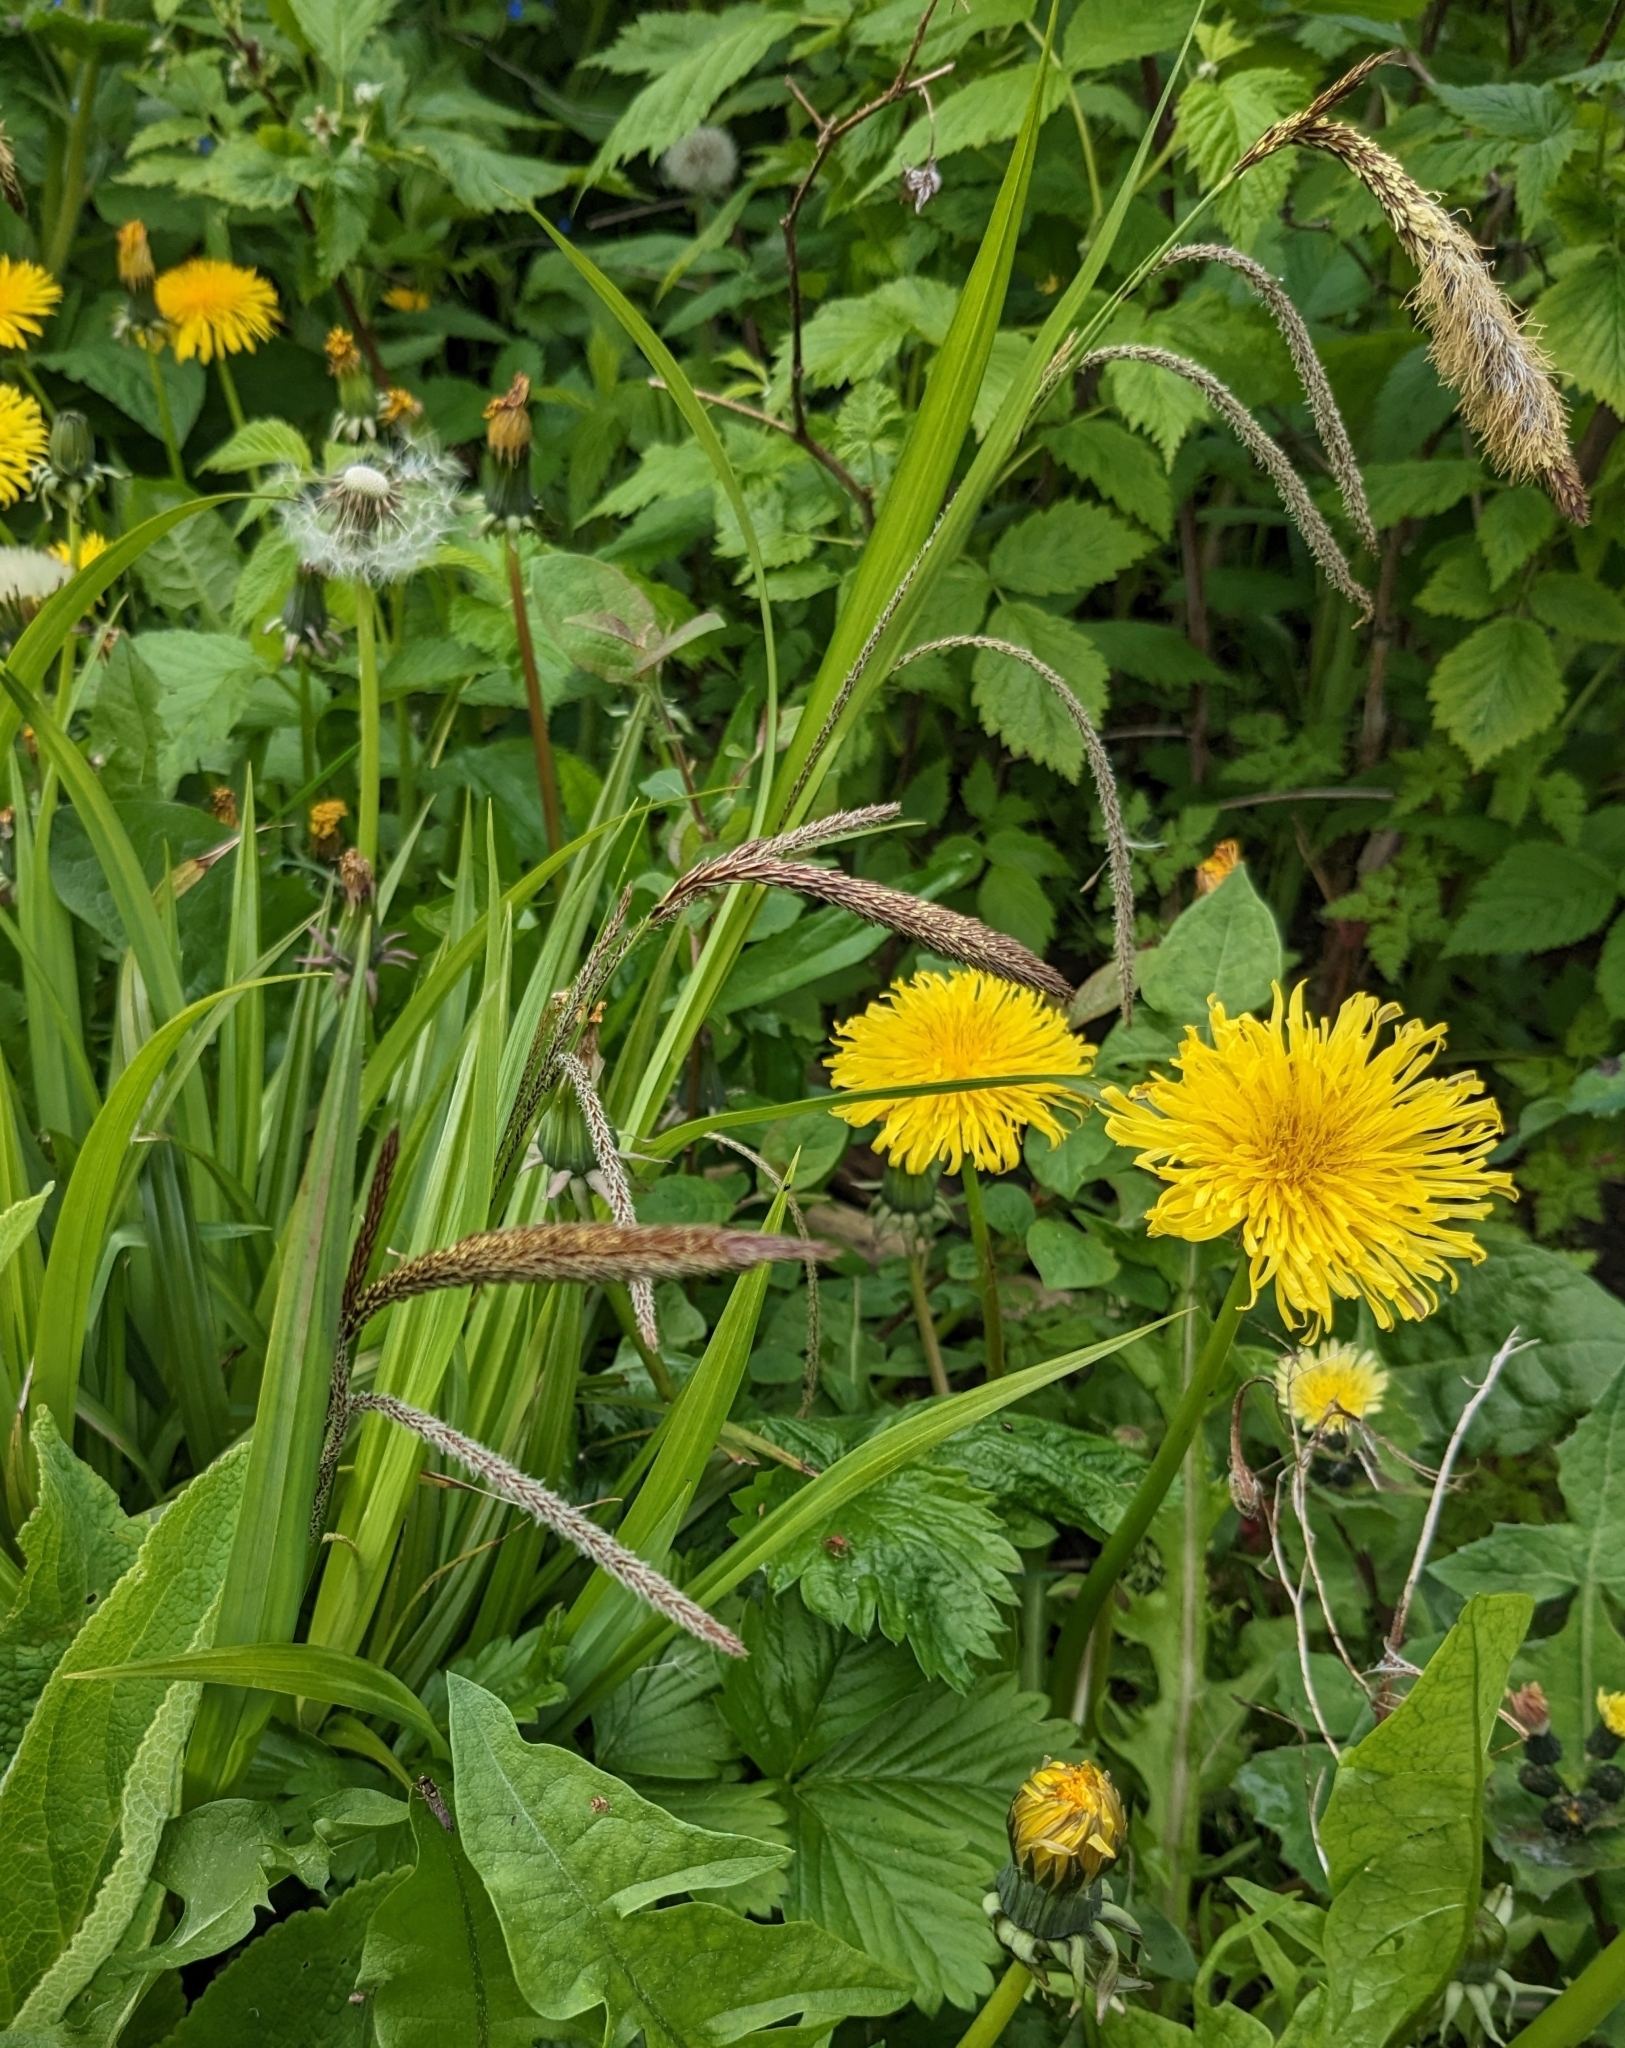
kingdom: Plantae
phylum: Tracheophyta
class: Liliopsida
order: Poales
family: Cyperaceae
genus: Carex
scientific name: Carex pendula
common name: Pendulous sedge
